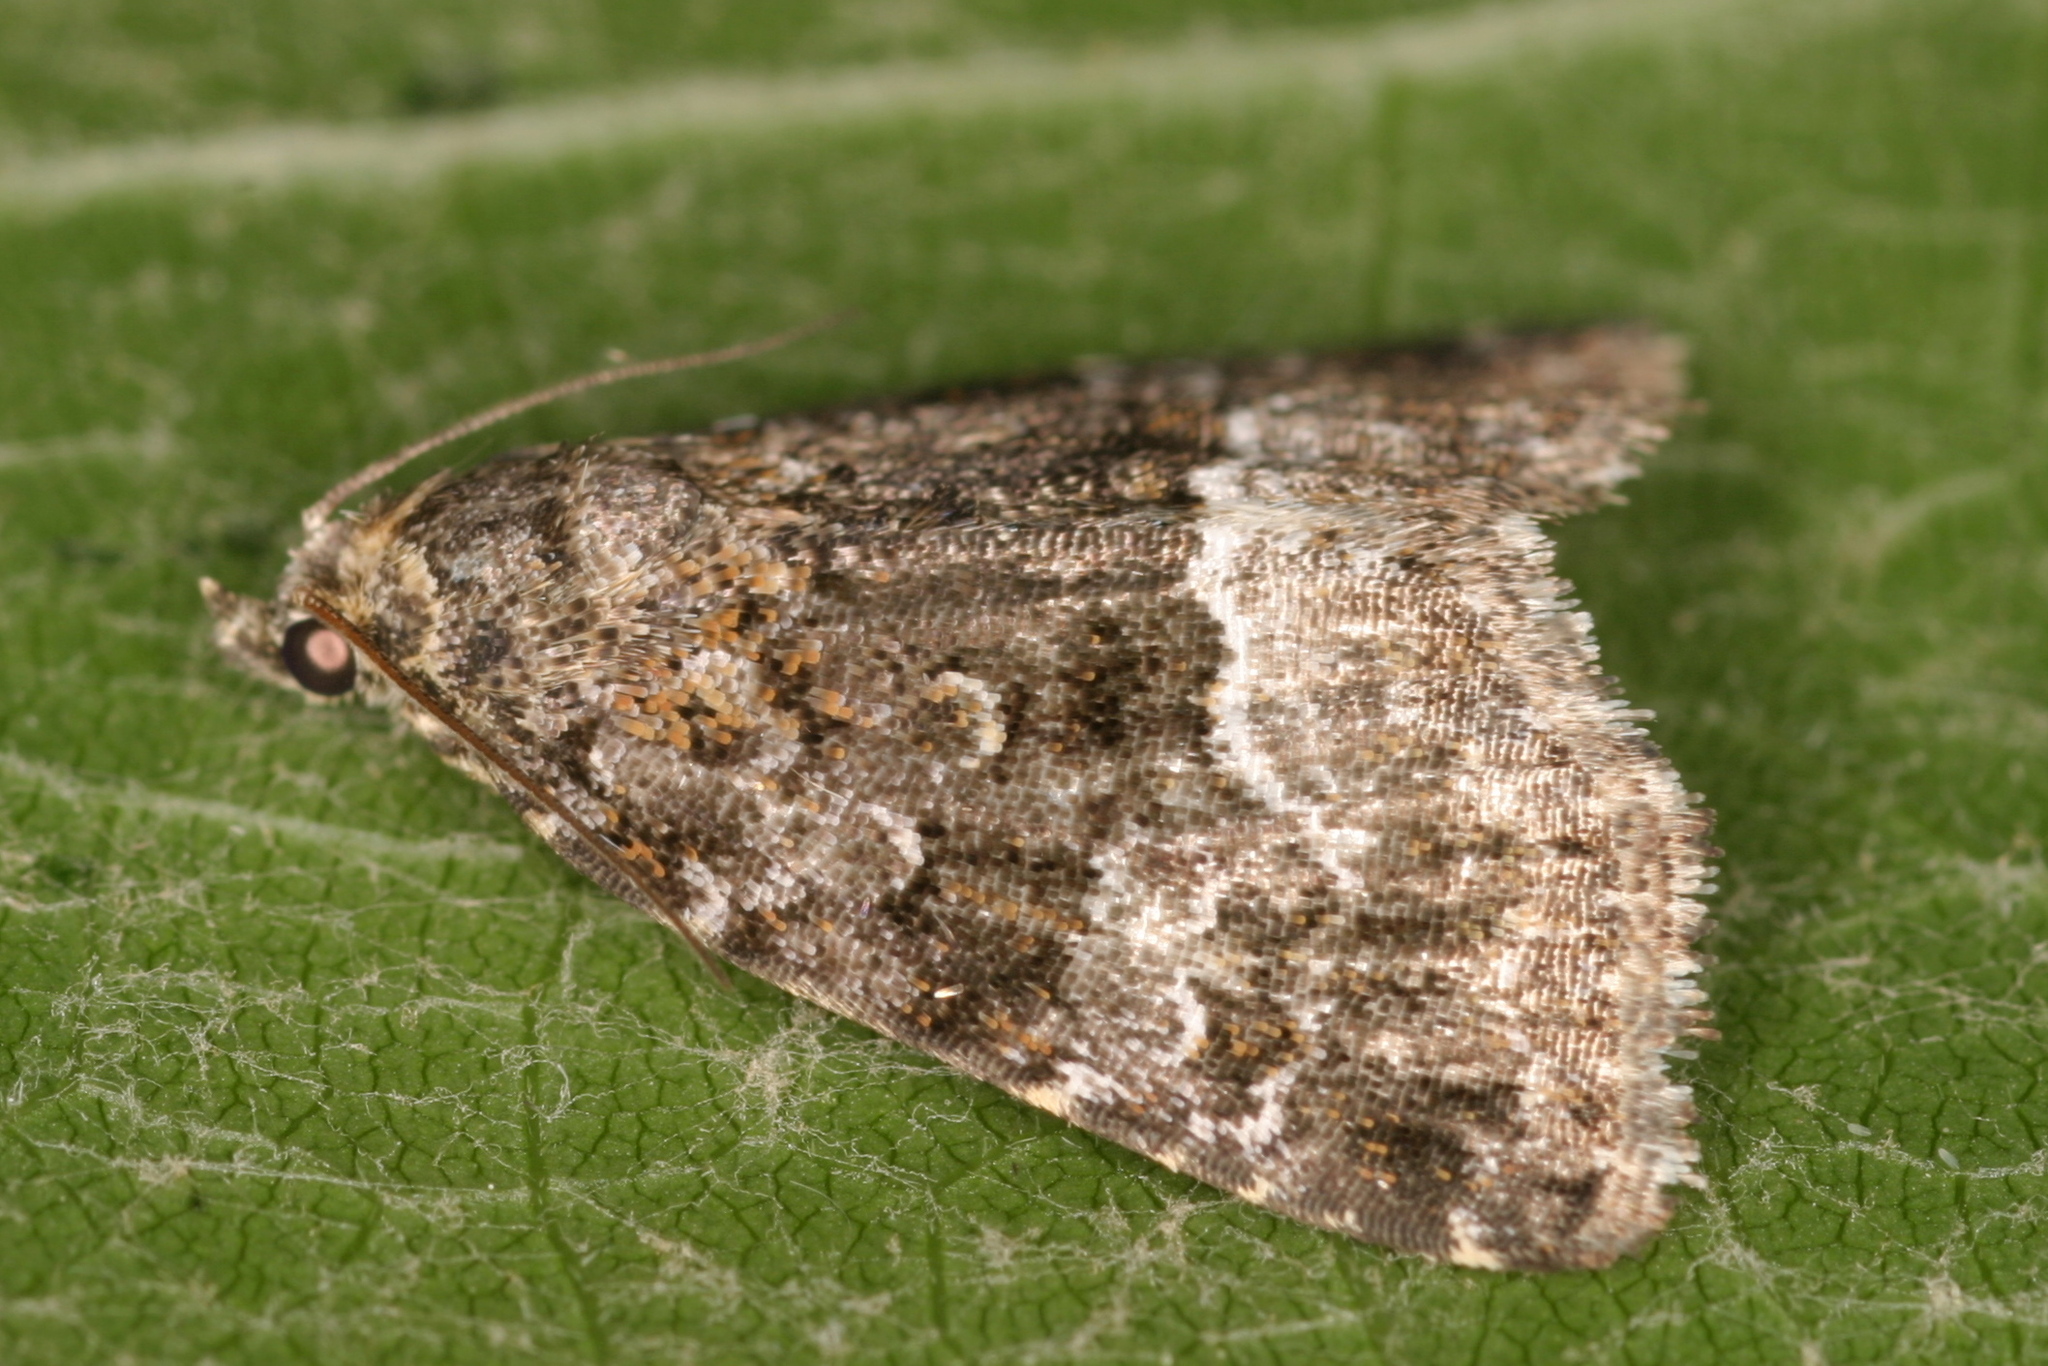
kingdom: Animalia
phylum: Arthropoda
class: Insecta
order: Lepidoptera
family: Noctuidae
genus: Deltote
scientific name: Deltote pygarga
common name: Marbled white spot
